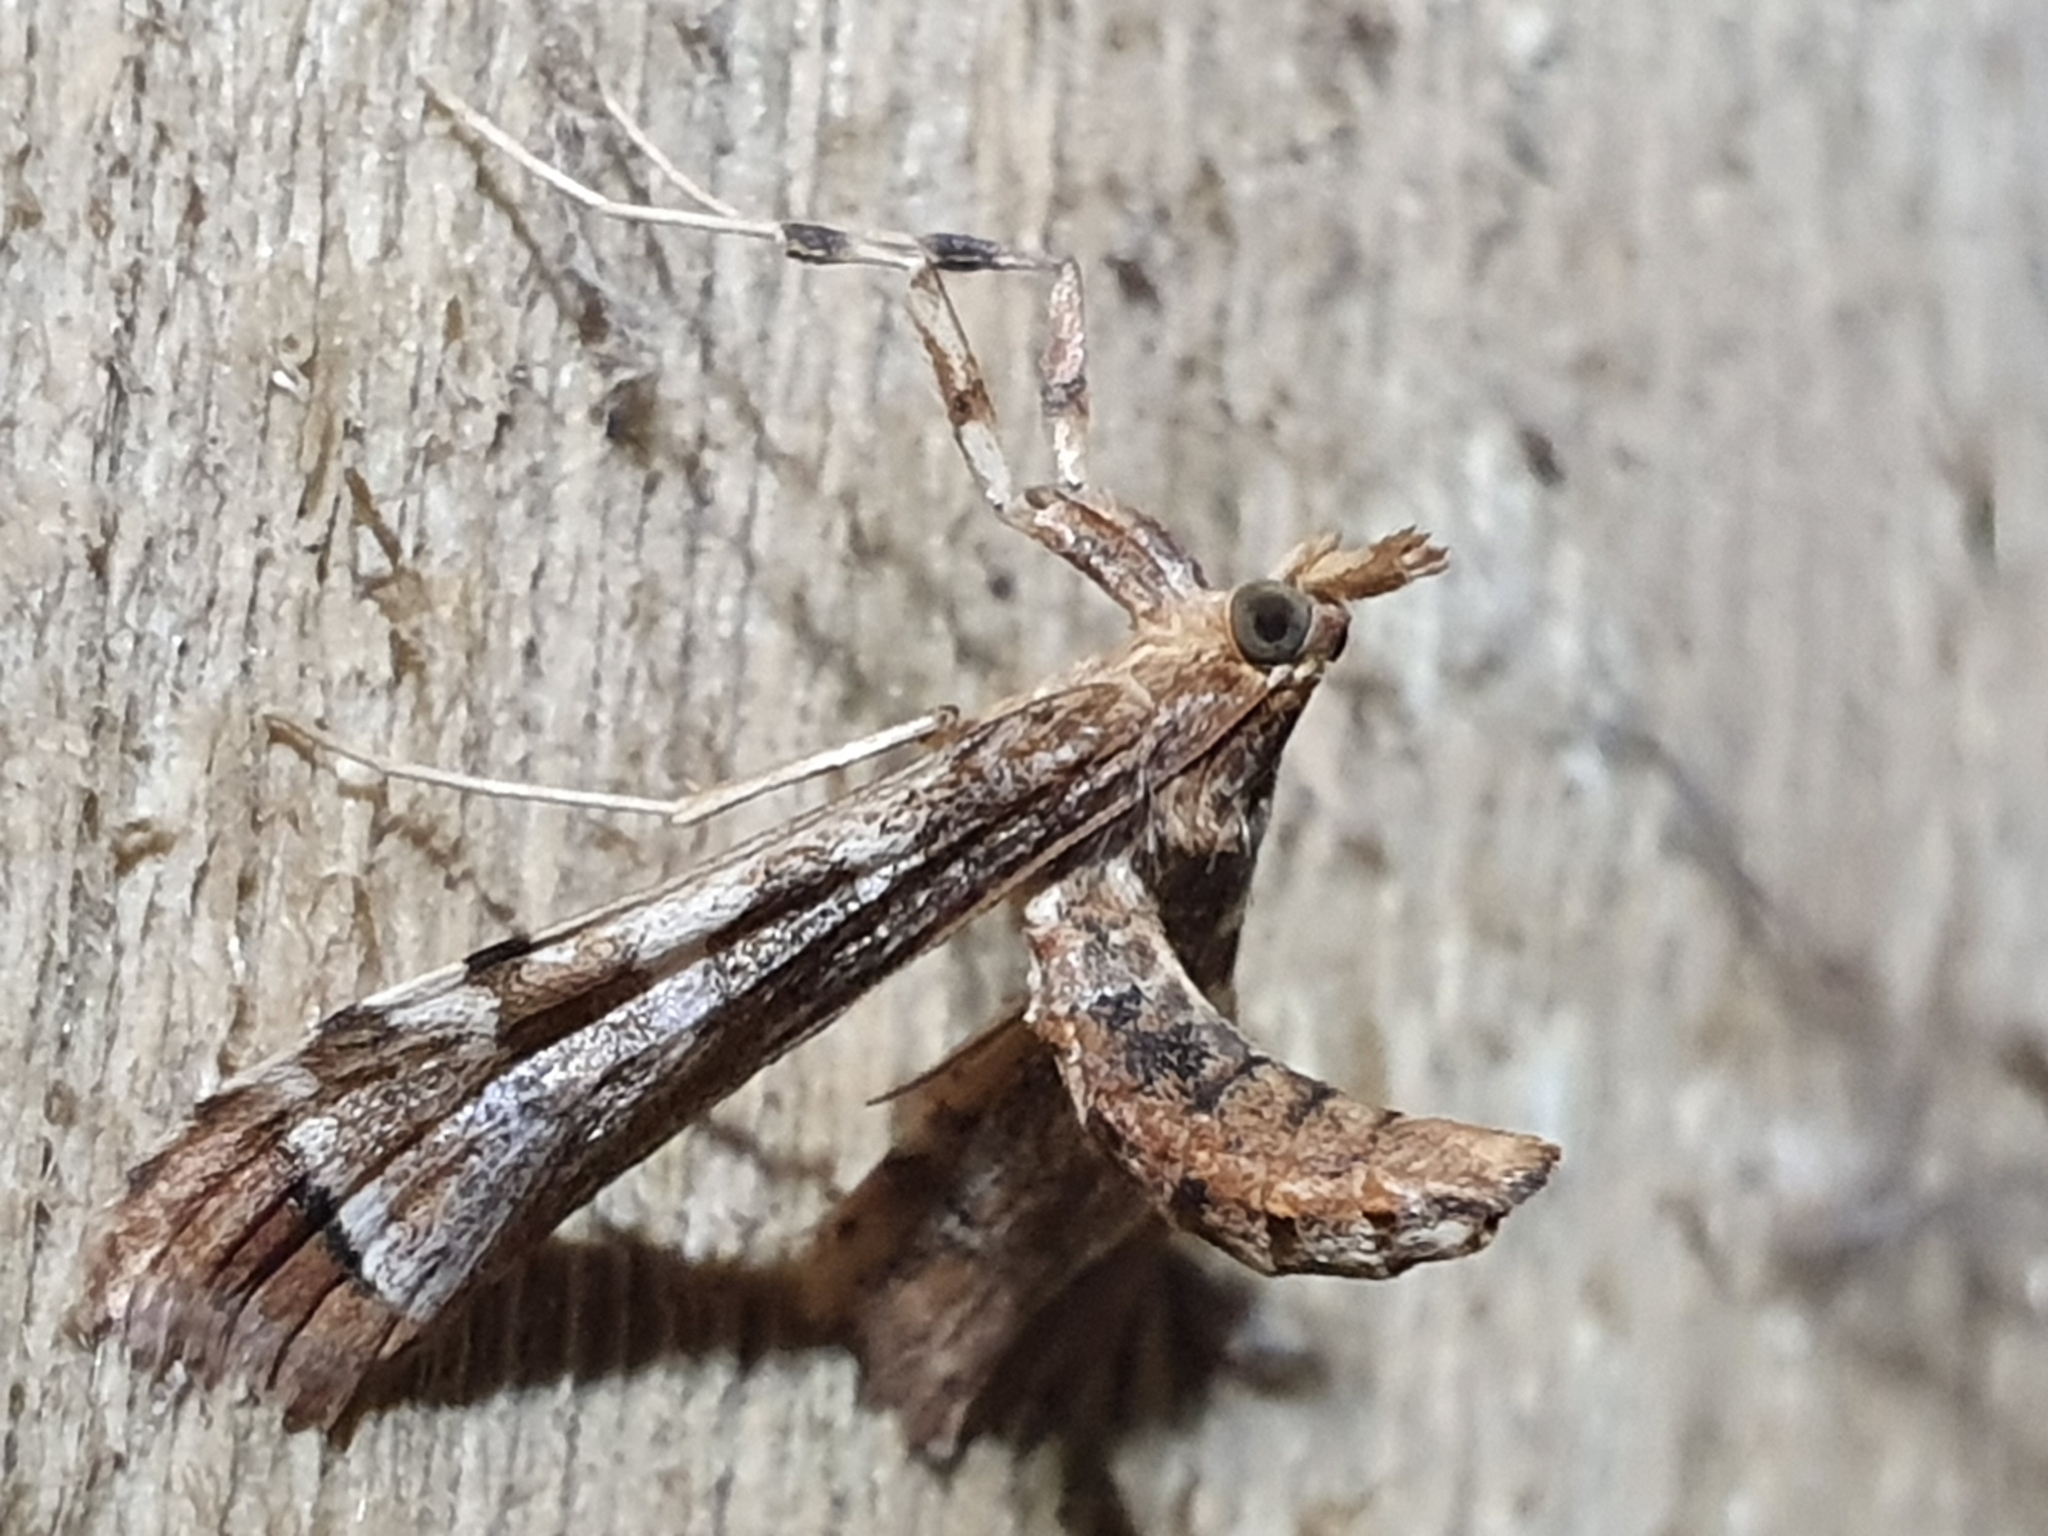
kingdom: Animalia
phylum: Arthropoda
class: Insecta
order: Lepidoptera
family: Crambidae
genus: Sceliodes
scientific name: Sceliodes cordalis
